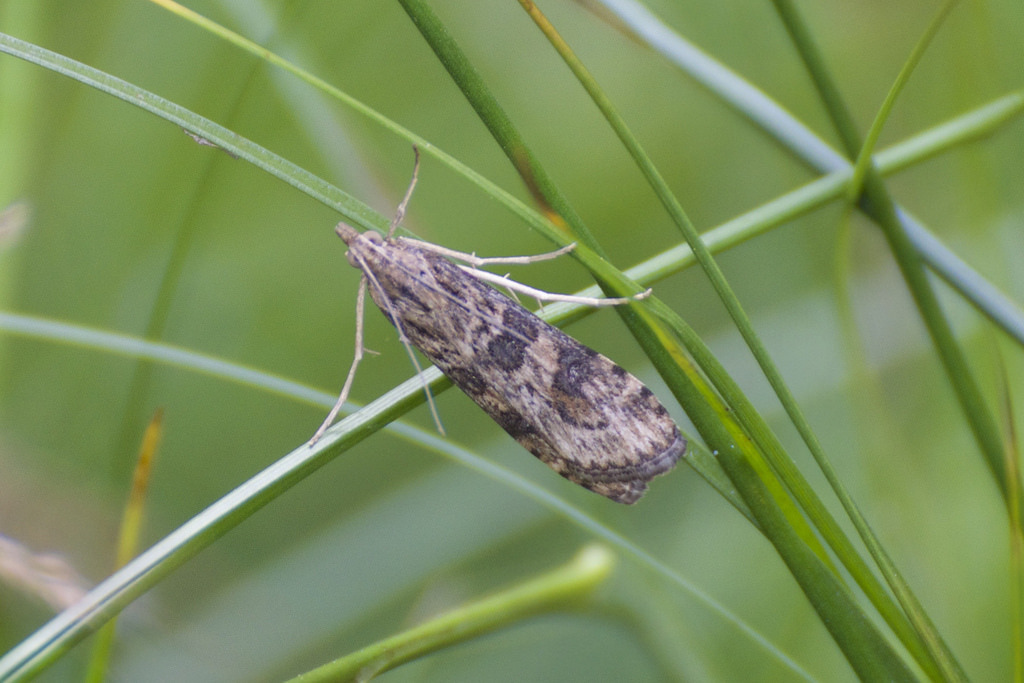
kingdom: Animalia
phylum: Arthropoda
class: Insecta
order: Lepidoptera
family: Crambidae
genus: Nomophila
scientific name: Nomophila nearctica
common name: American rush veneer
